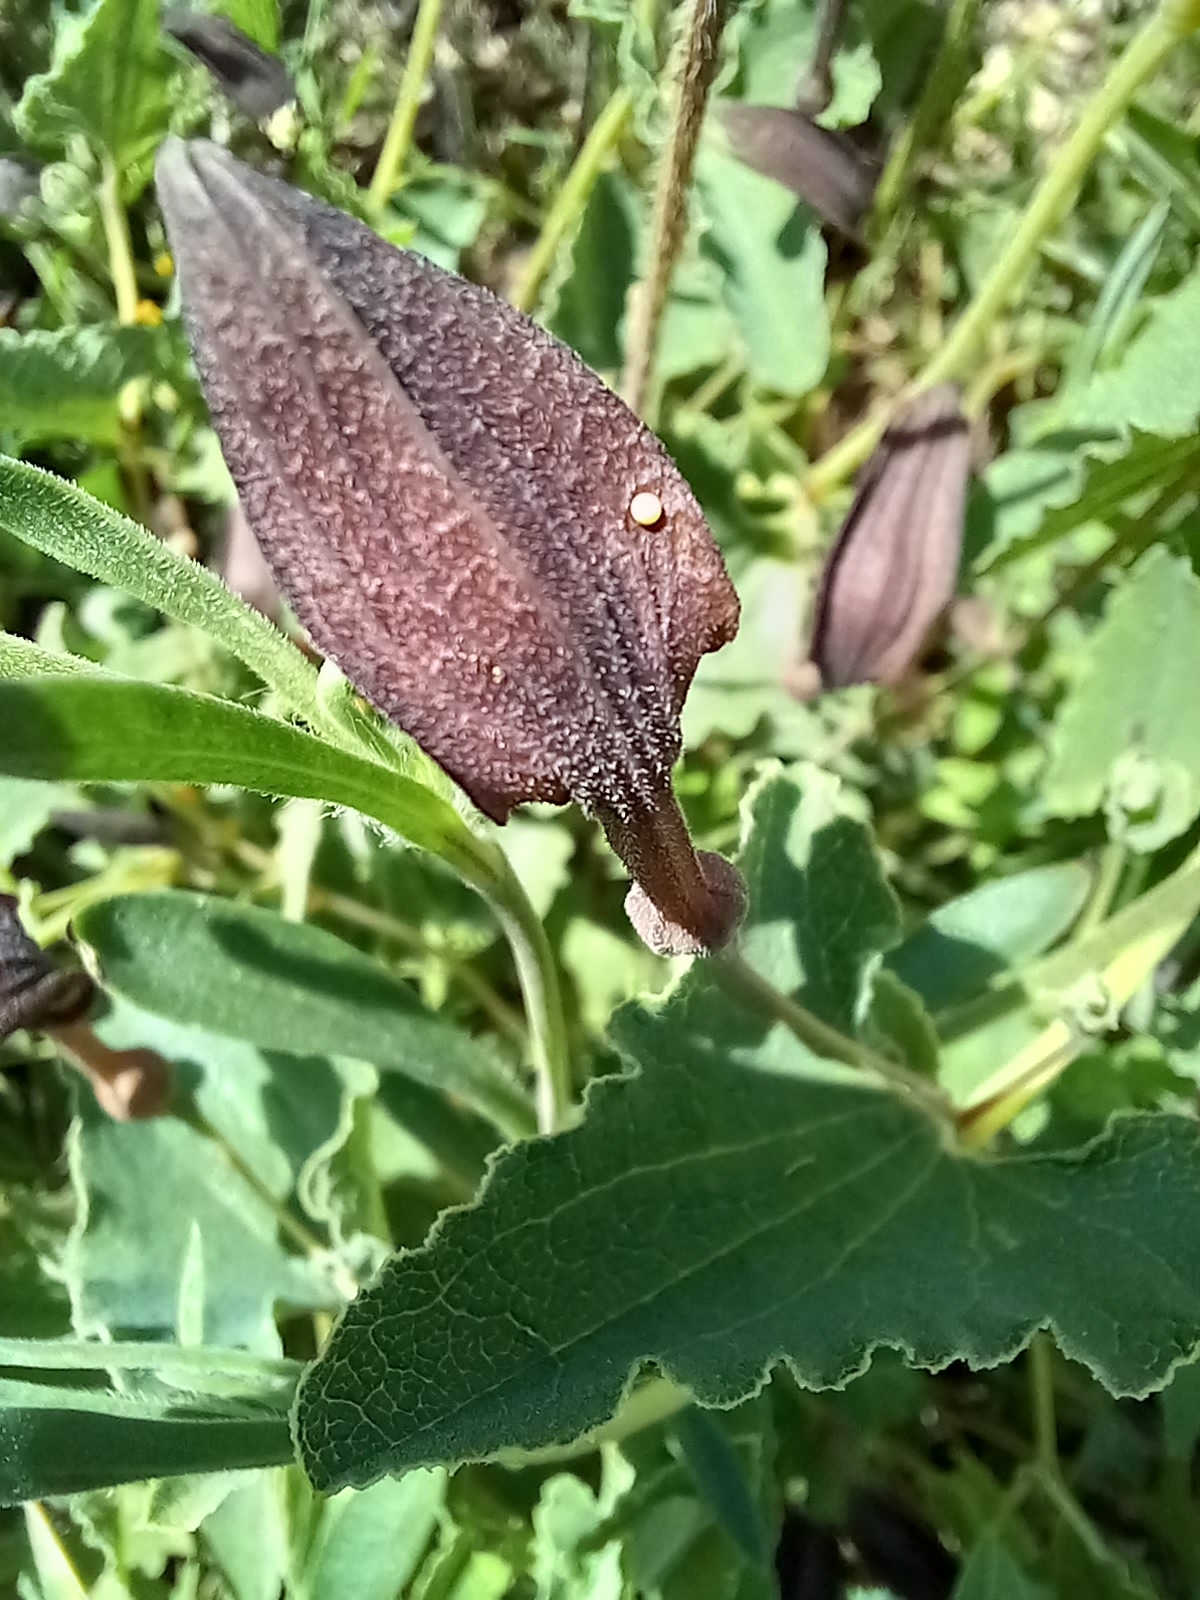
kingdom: Animalia
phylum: Arthropoda
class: Insecta
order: Lepidoptera
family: Papilionidae
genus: Zerynthia
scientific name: Zerynthia rumina
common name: Spanish festoon
